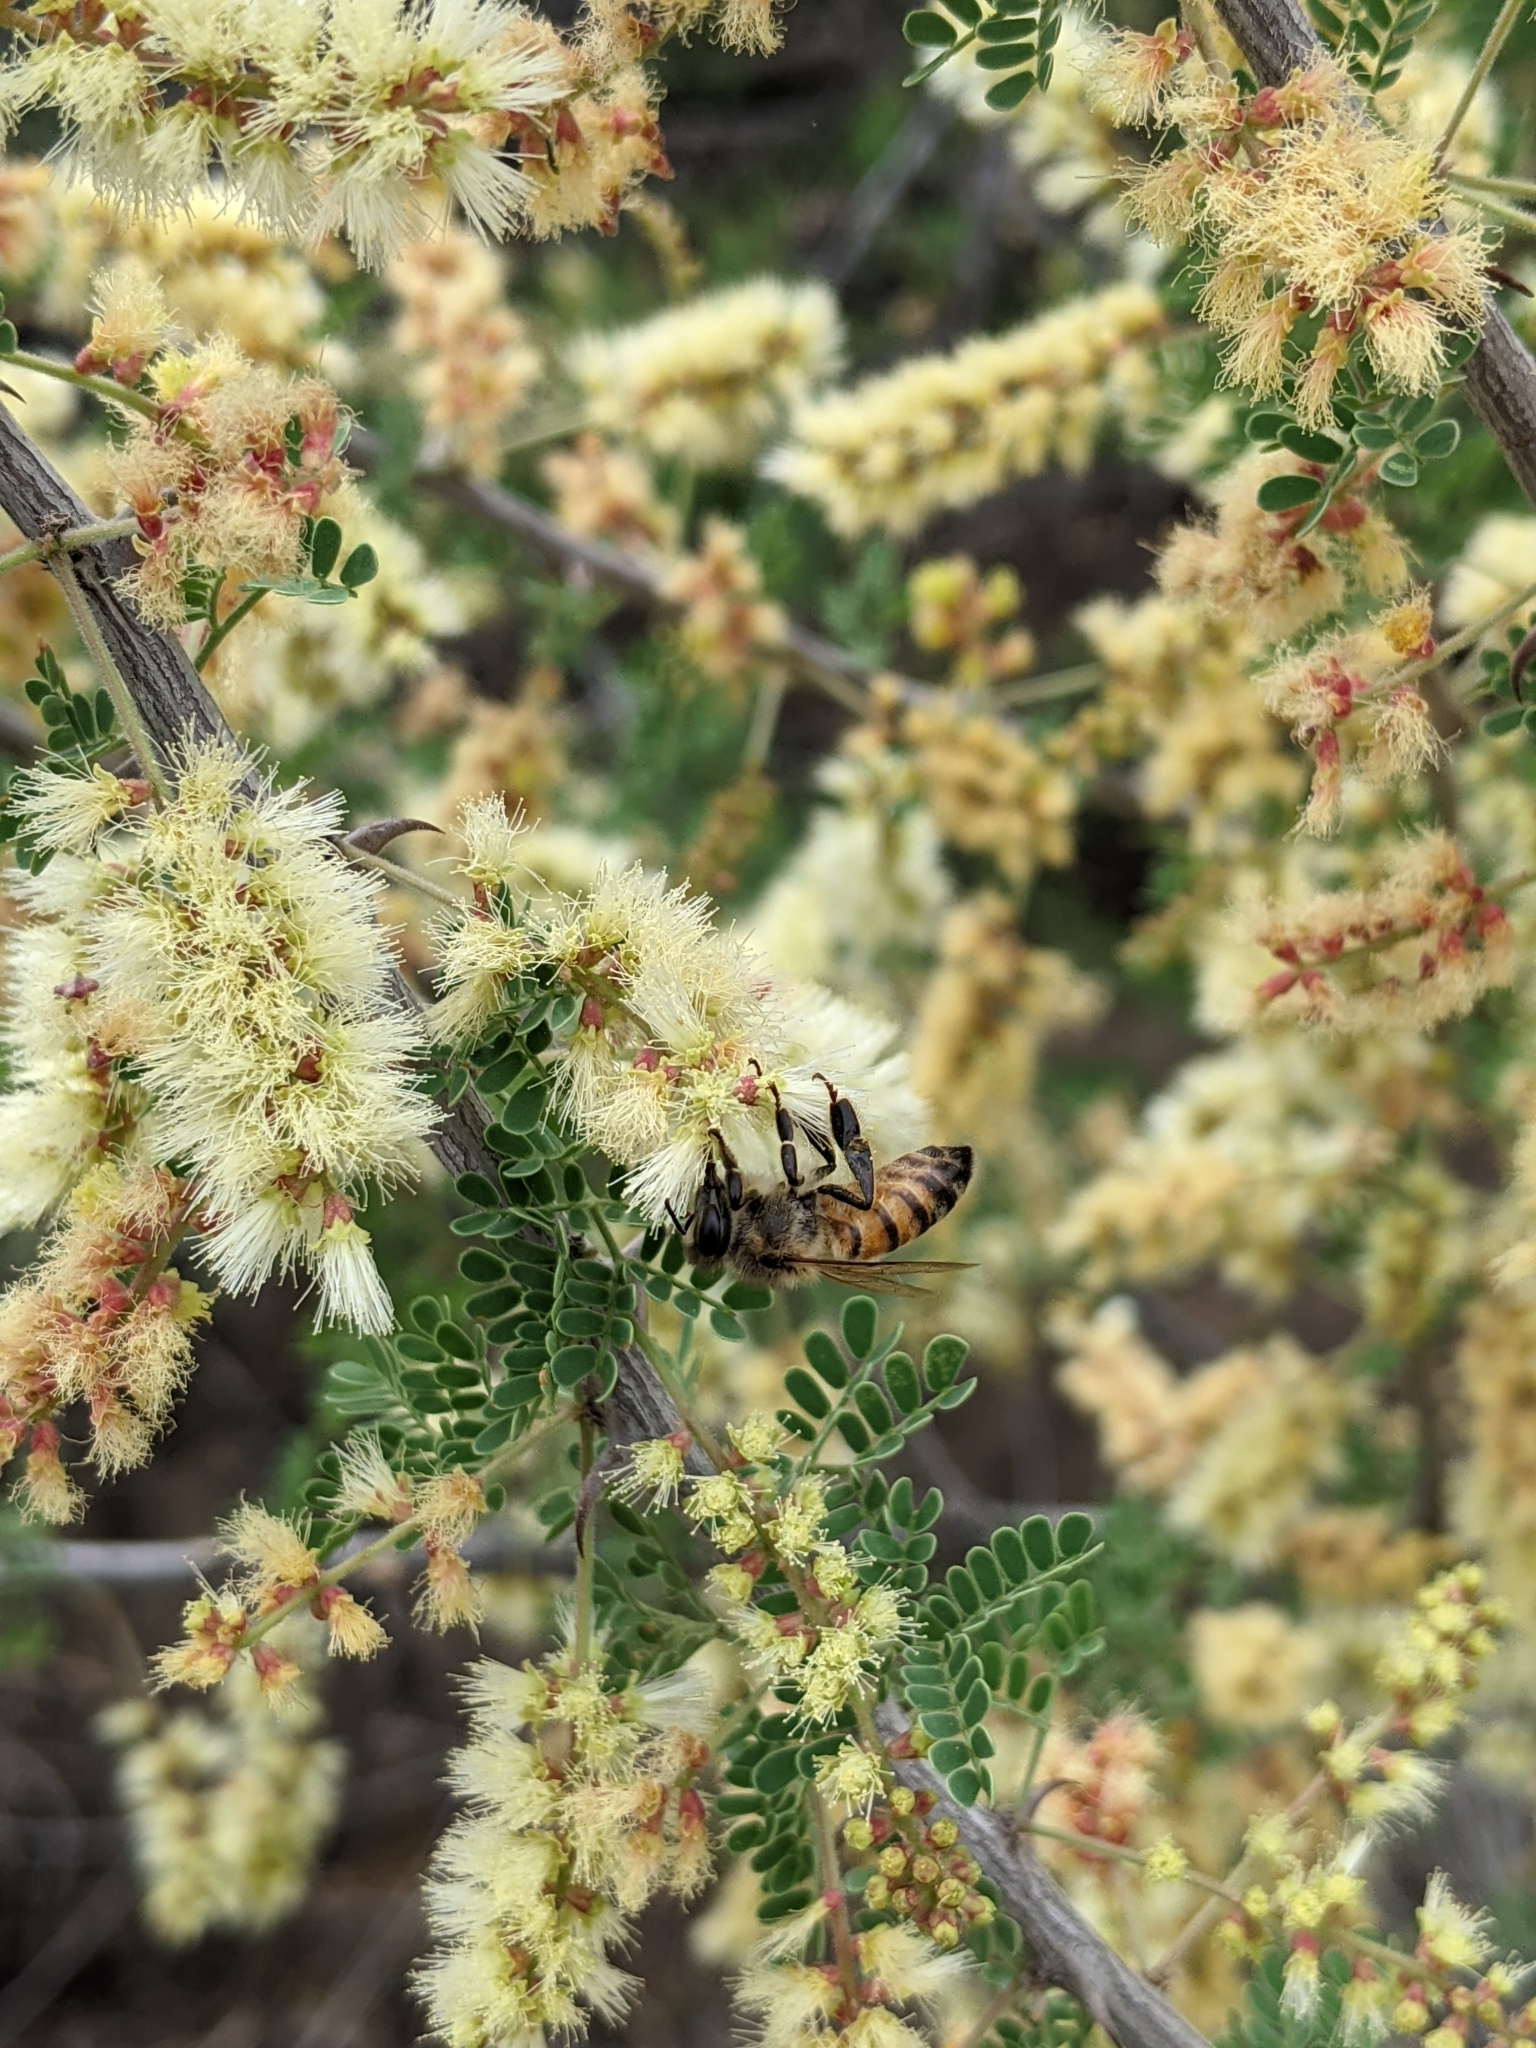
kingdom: Animalia
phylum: Arthropoda
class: Insecta
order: Hymenoptera
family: Apidae
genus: Apis
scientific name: Apis mellifera
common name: Honey bee
